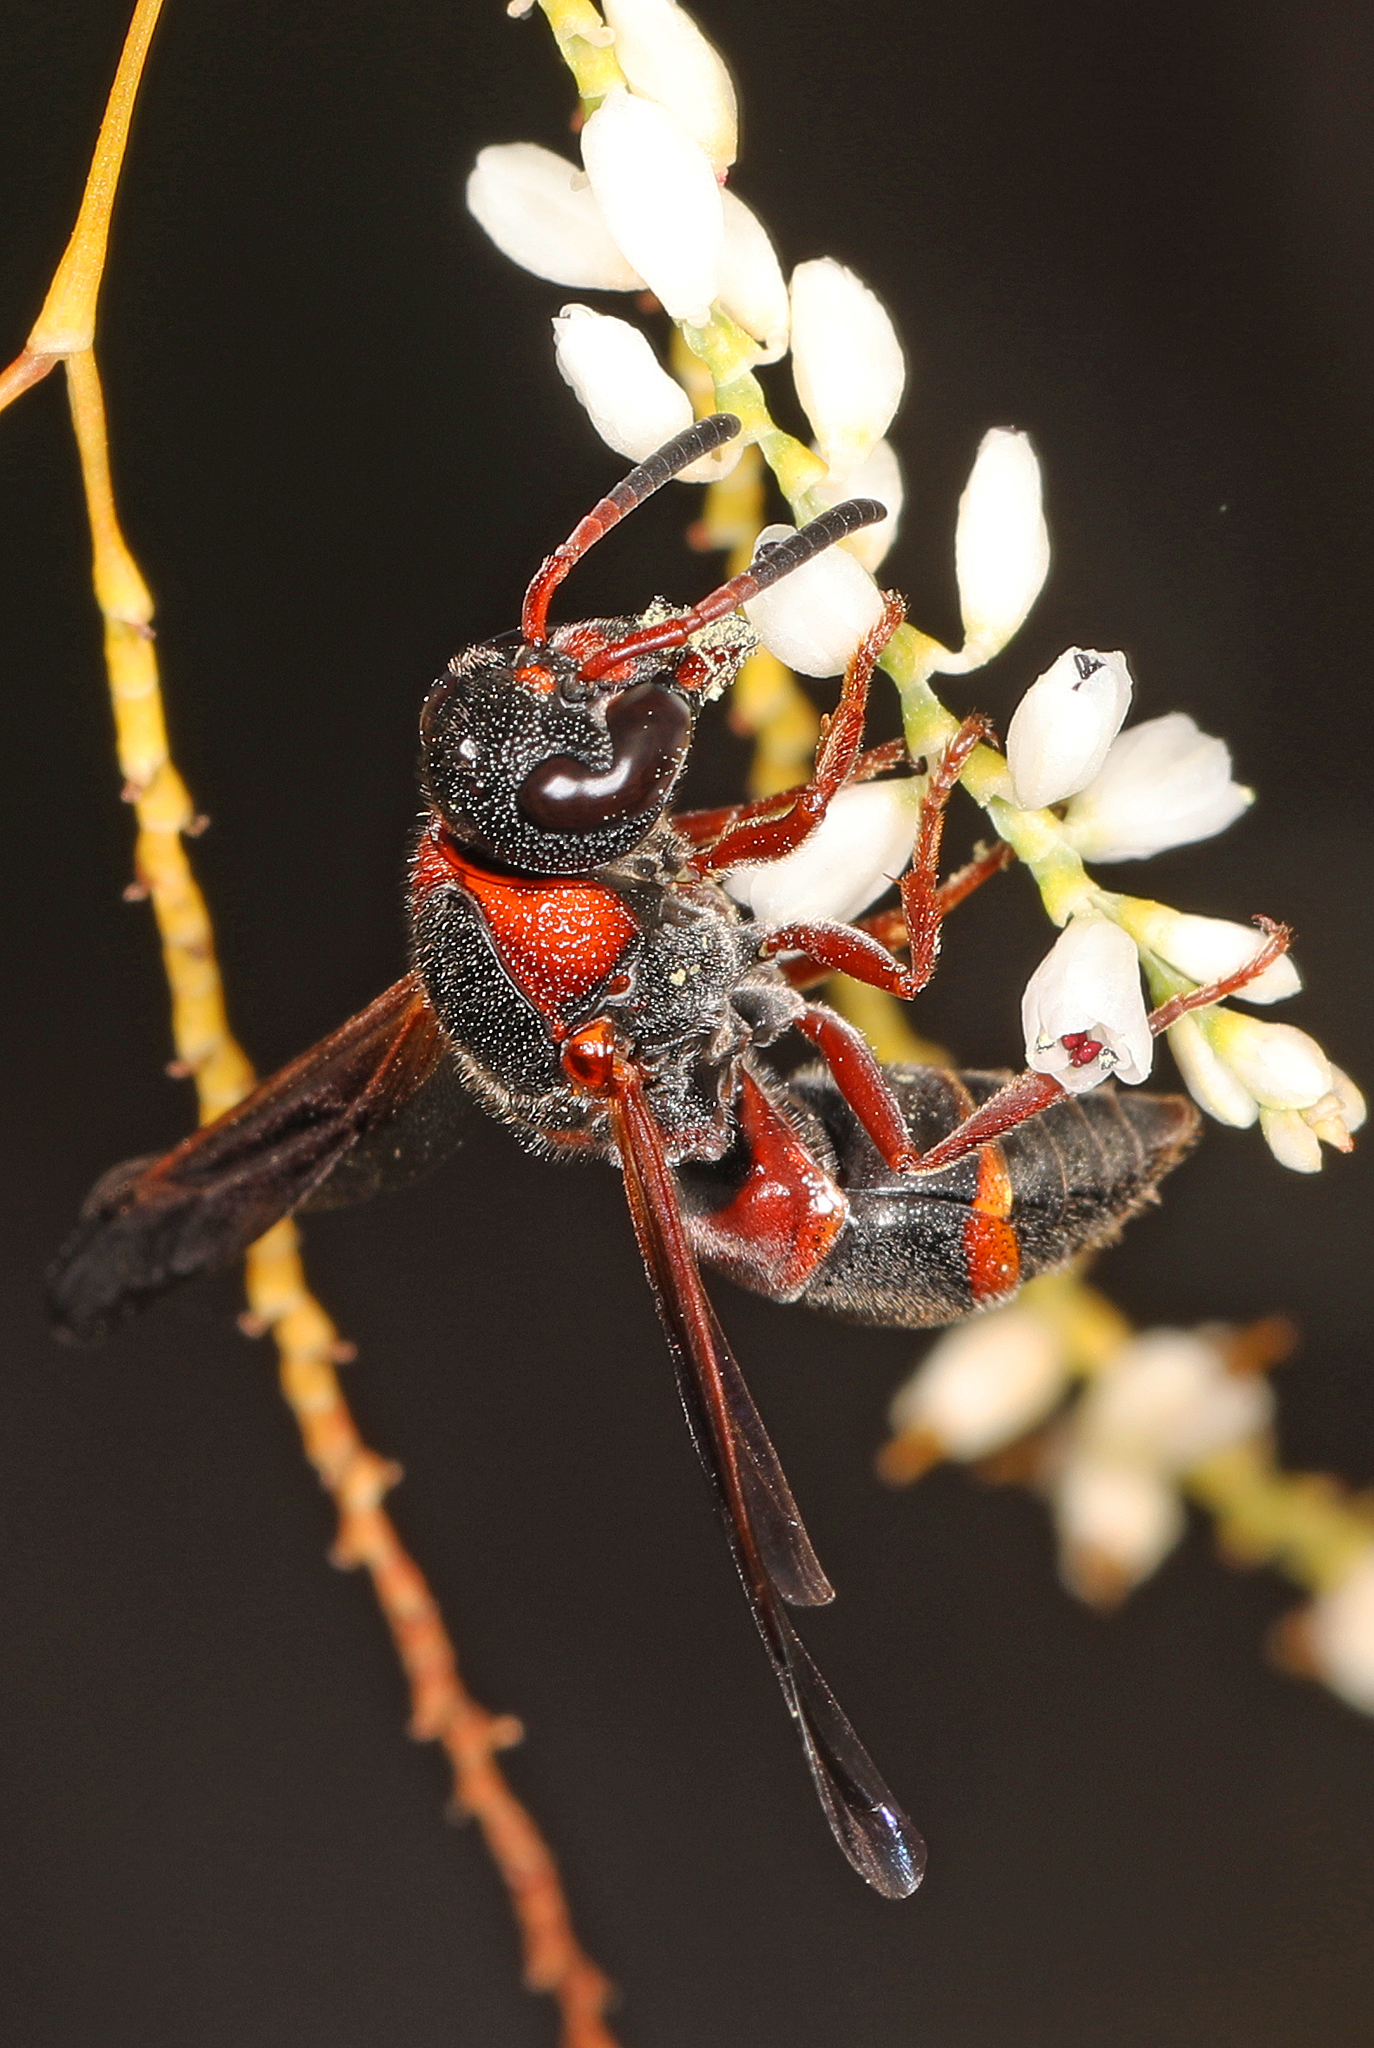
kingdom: Animalia
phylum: Arthropoda
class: Insecta
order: Hymenoptera
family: Eumenidae
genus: Pachodynerus
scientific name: Pachodynerus erynnis
